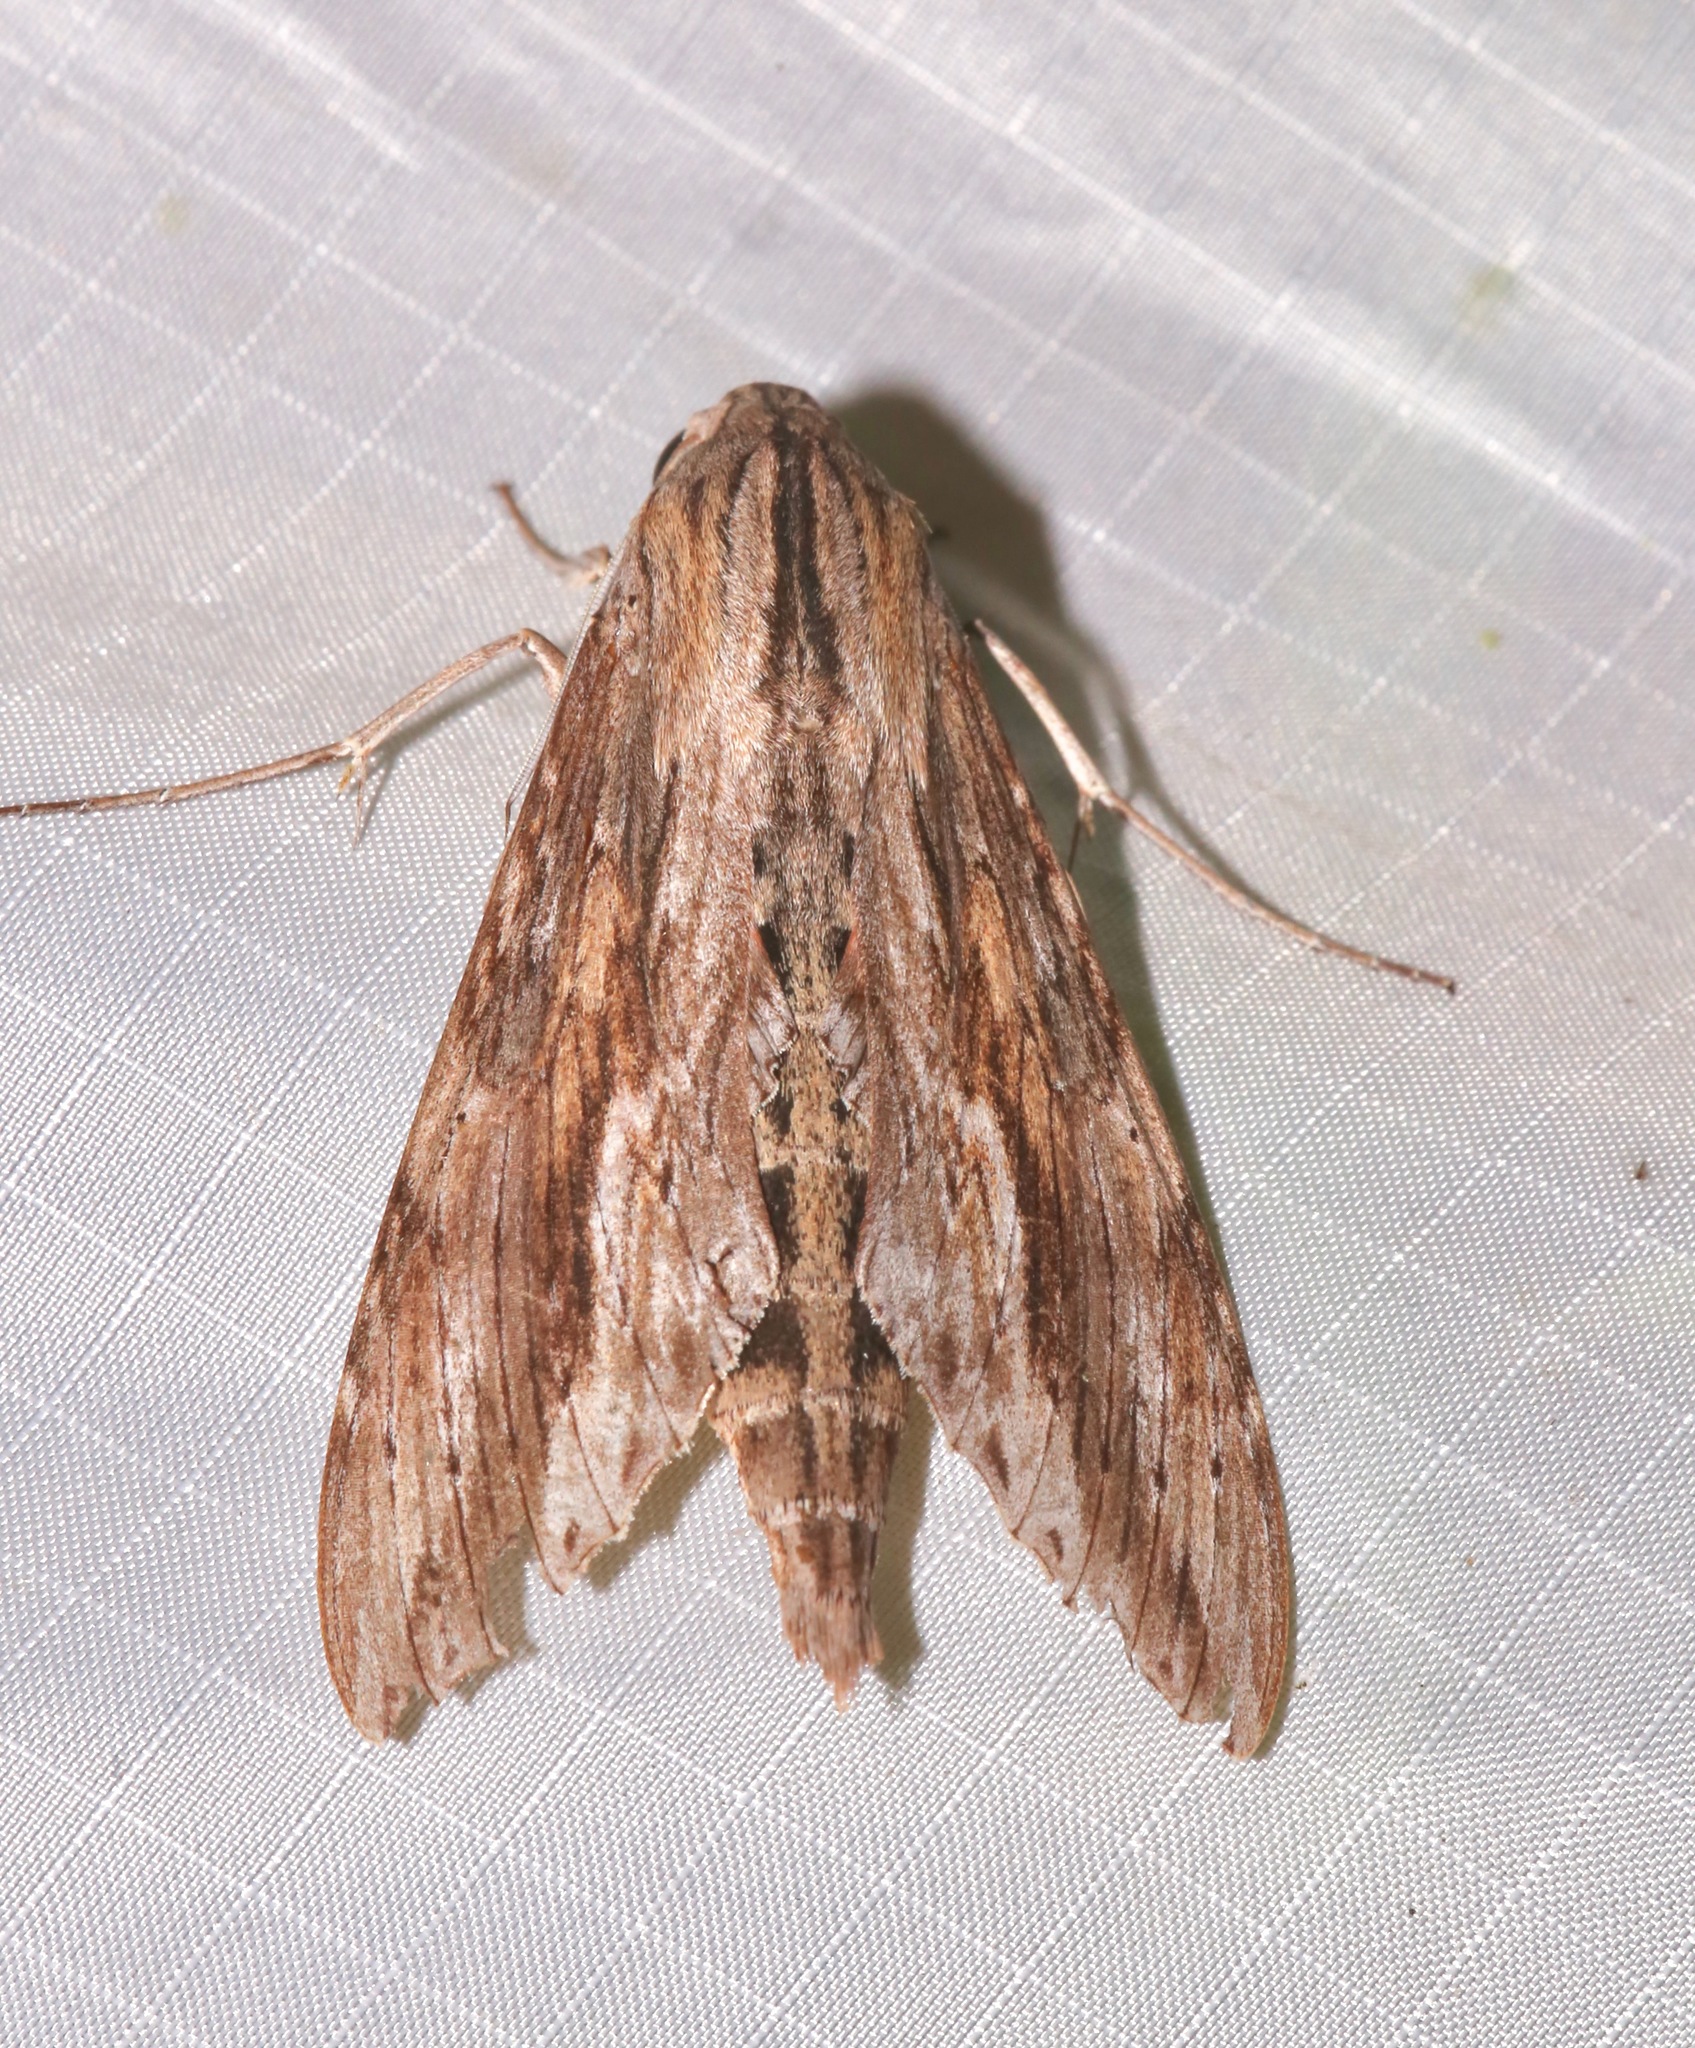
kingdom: Animalia
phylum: Arthropoda
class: Insecta
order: Lepidoptera
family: Sphingidae
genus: Erinnyis
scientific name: Erinnyis ello
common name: Ello sphinx
